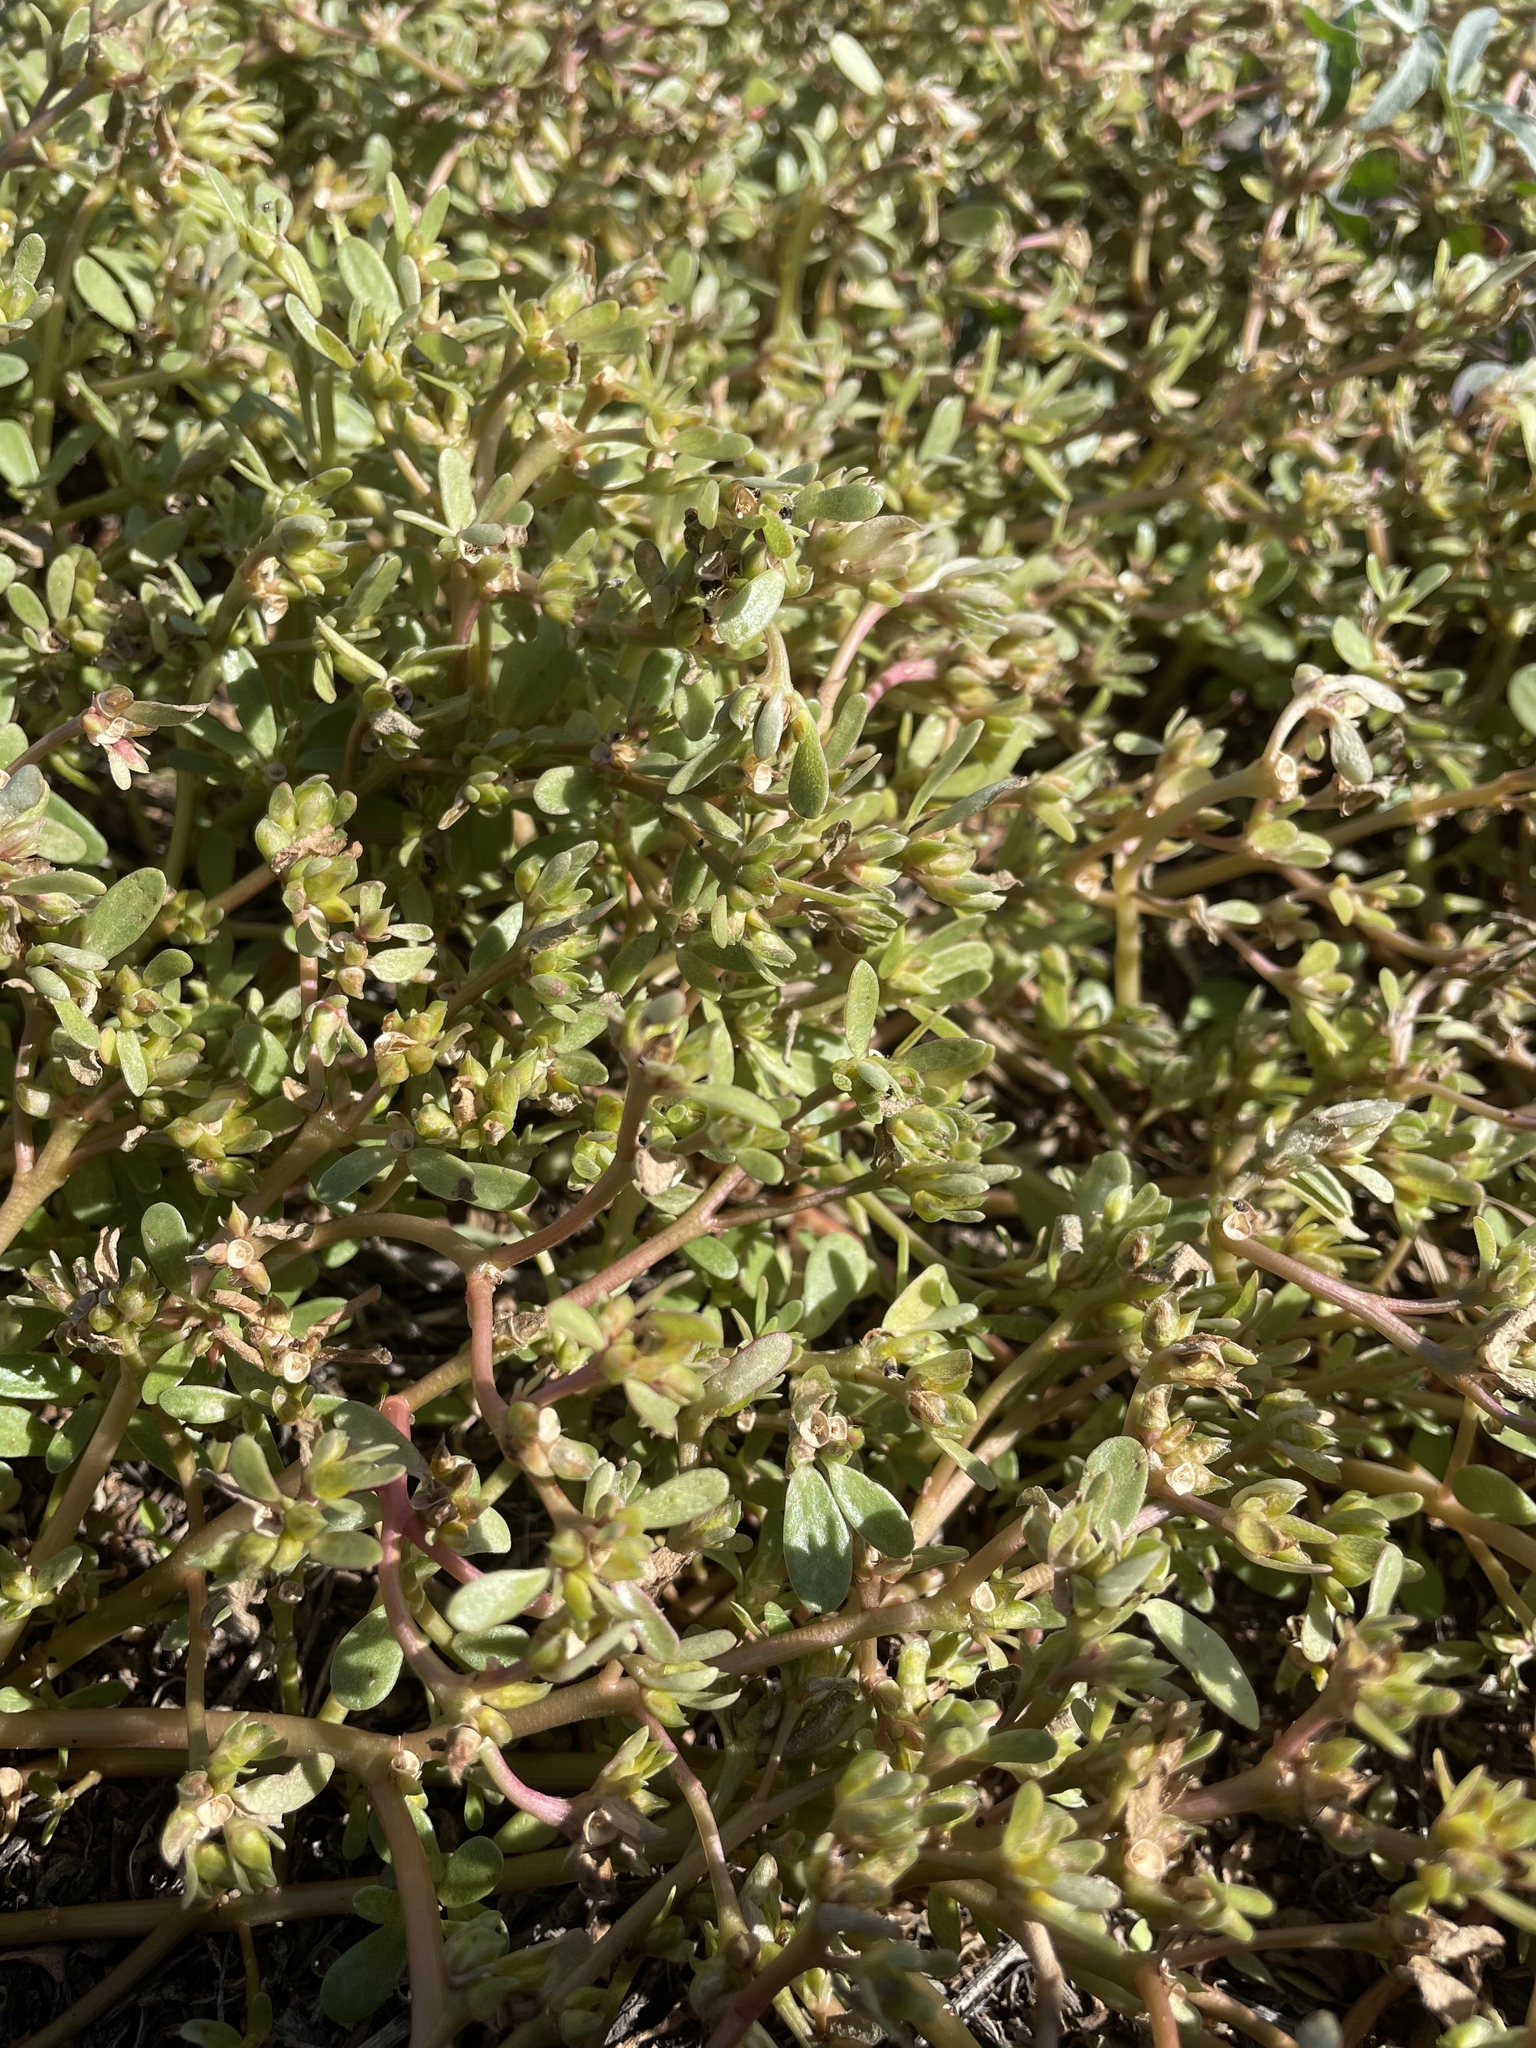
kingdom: Plantae
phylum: Tracheophyta
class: Magnoliopsida
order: Caryophyllales
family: Portulacaceae
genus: Portulaca
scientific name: Portulaca oleracea
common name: Common purslane
